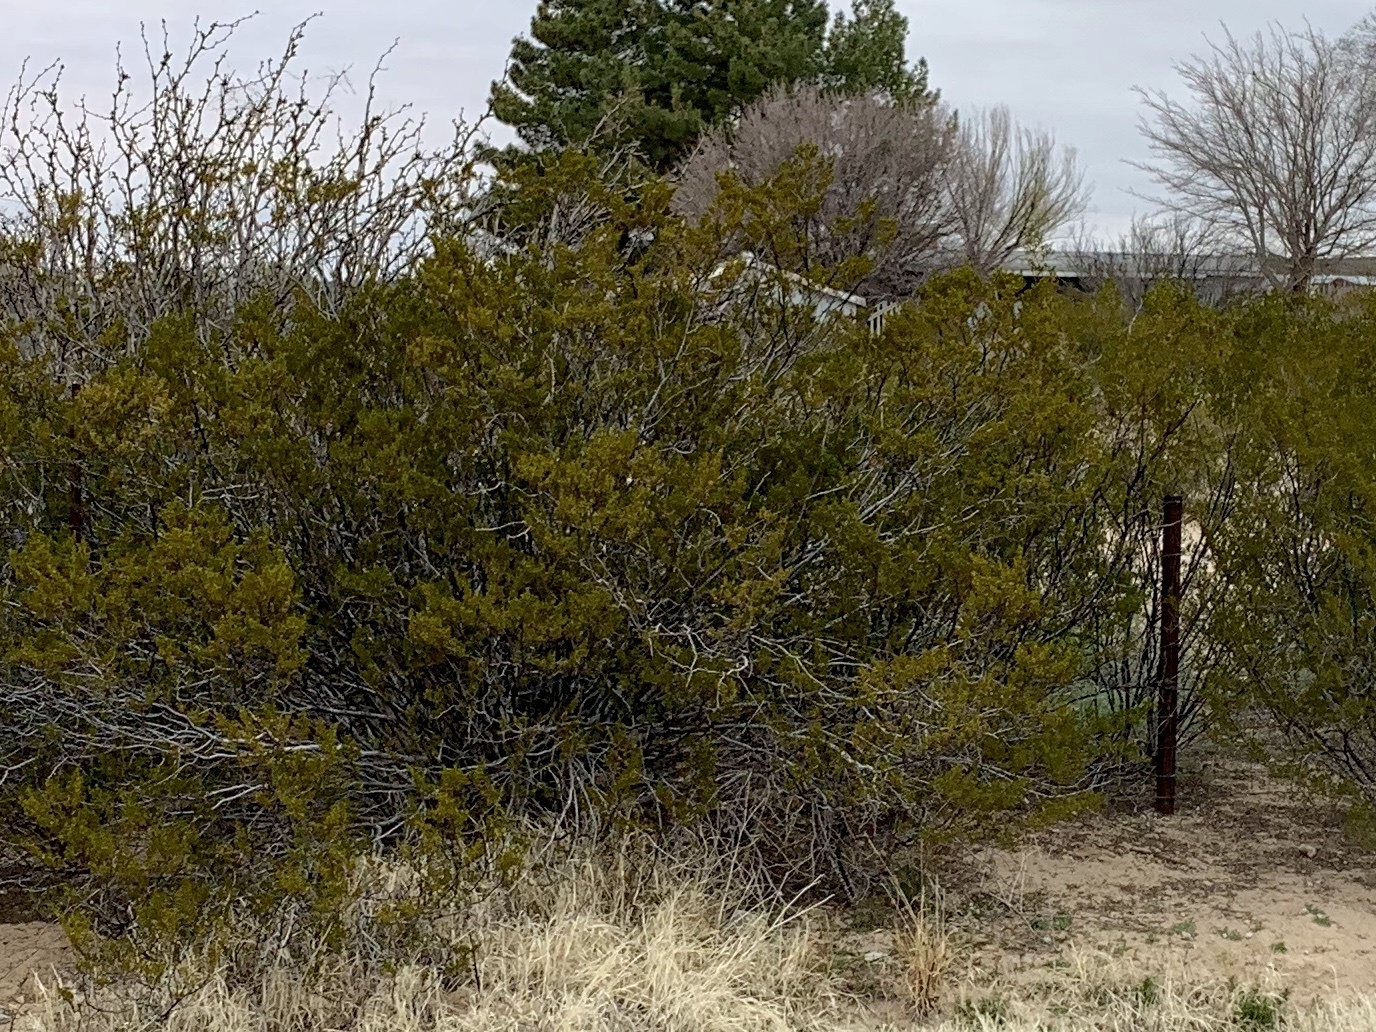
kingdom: Plantae
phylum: Tracheophyta
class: Magnoliopsida
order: Zygophyllales
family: Zygophyllaceae
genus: Larrea
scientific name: Larrea tridentata
